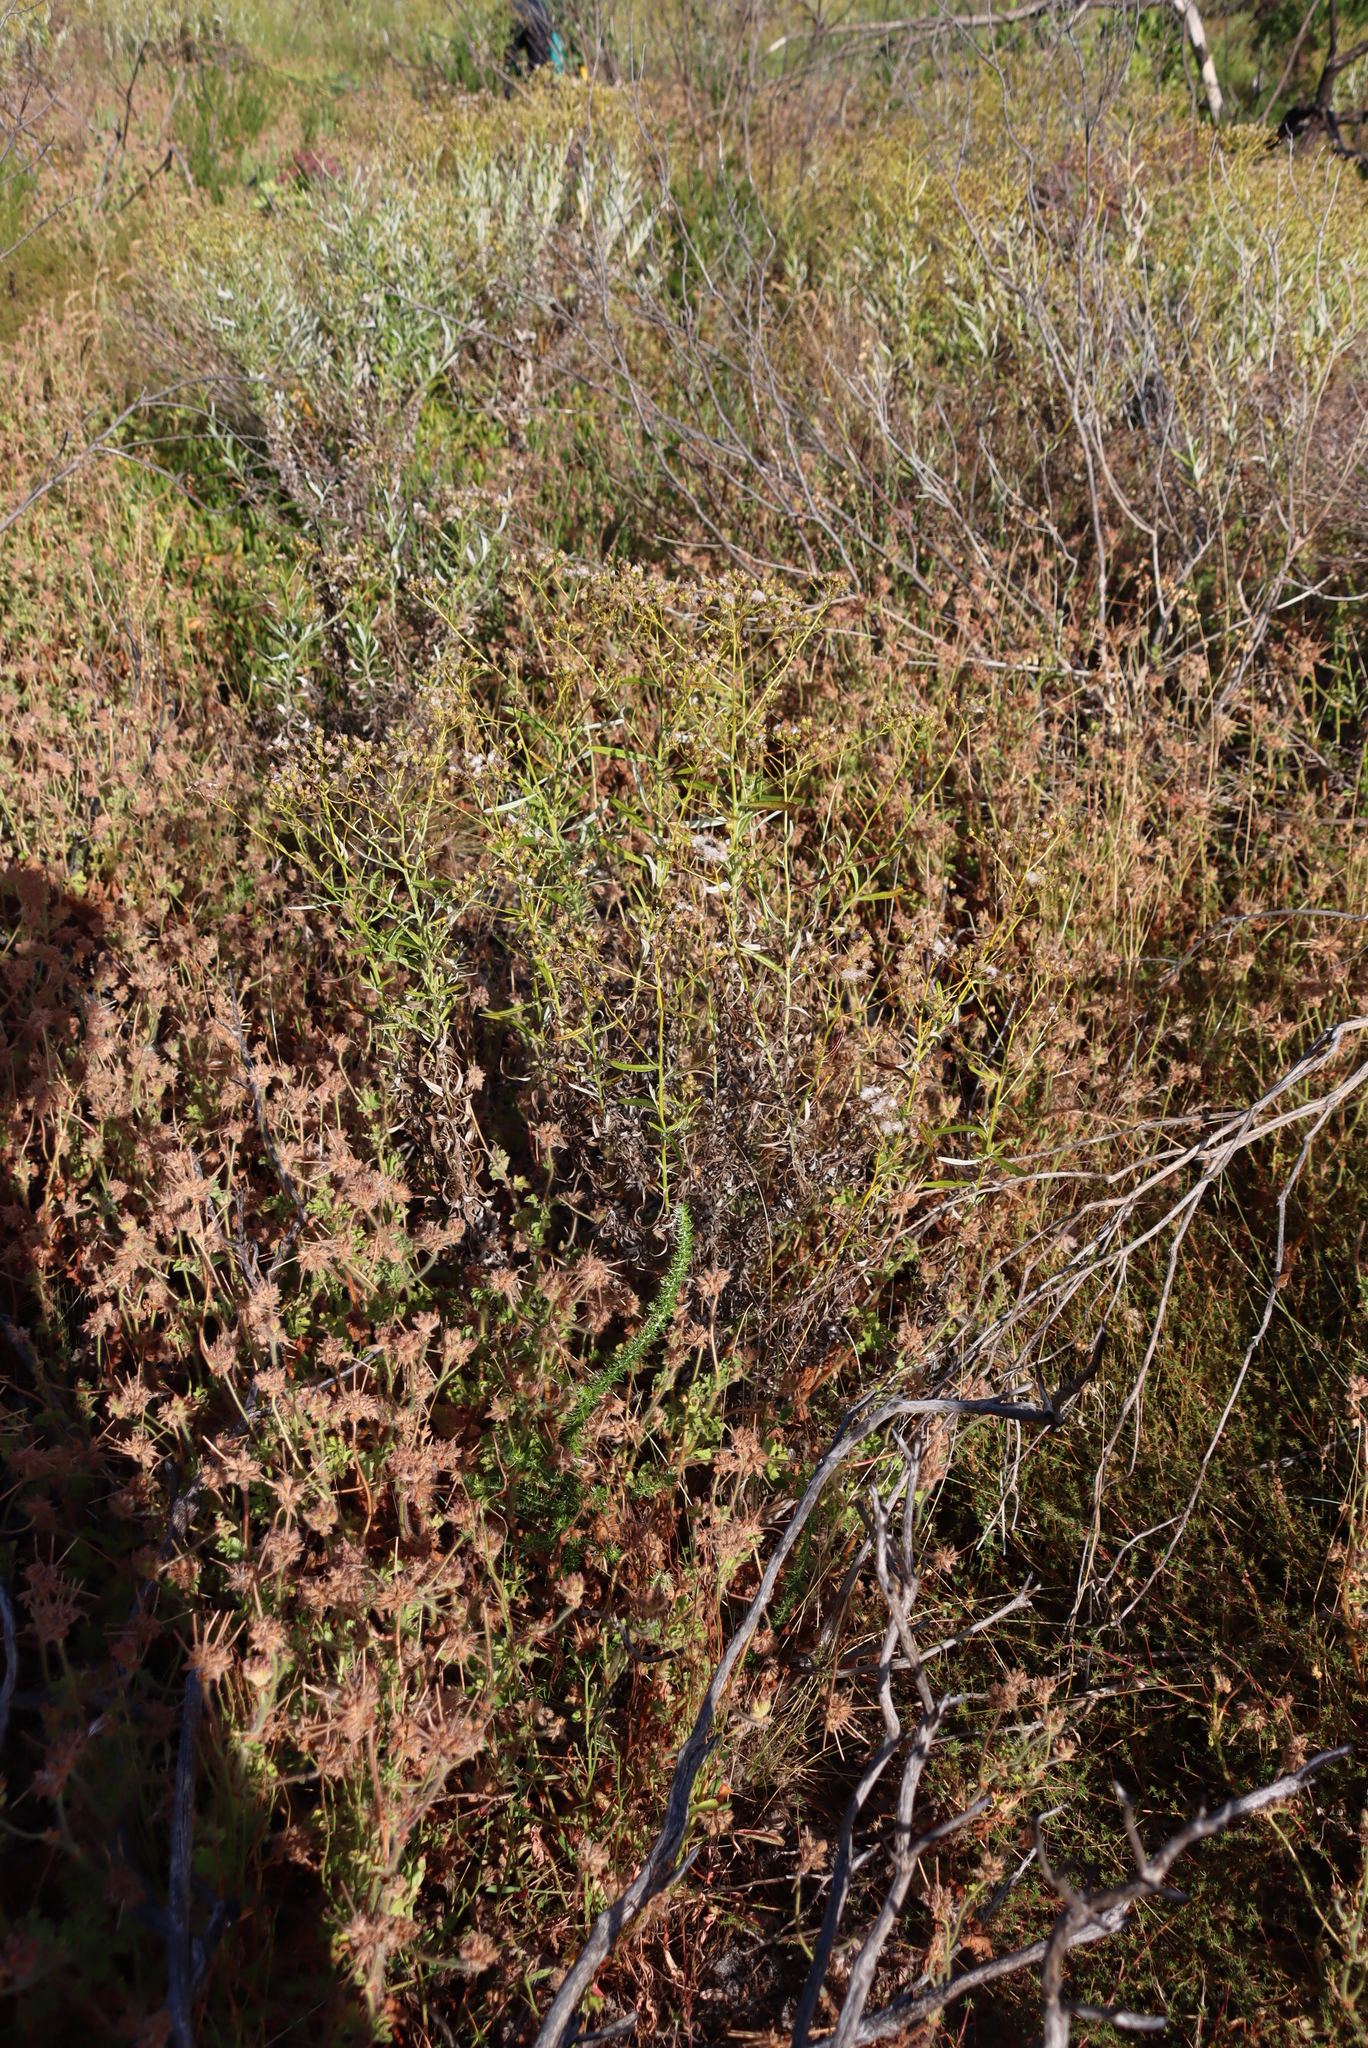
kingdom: Plantae
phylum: Tracheophyta
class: Magnoliopsida
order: Asterales
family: Asteraceae
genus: Senecio
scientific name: Senecio pterophorus
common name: Shoddy ragwort
